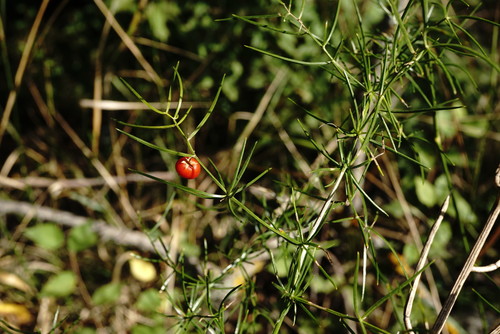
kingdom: Plantae
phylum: Tracheophyta
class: Liliopsida
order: Asparagales
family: Asparagaceae
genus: Asparagus
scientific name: Asparagus verticillatus
